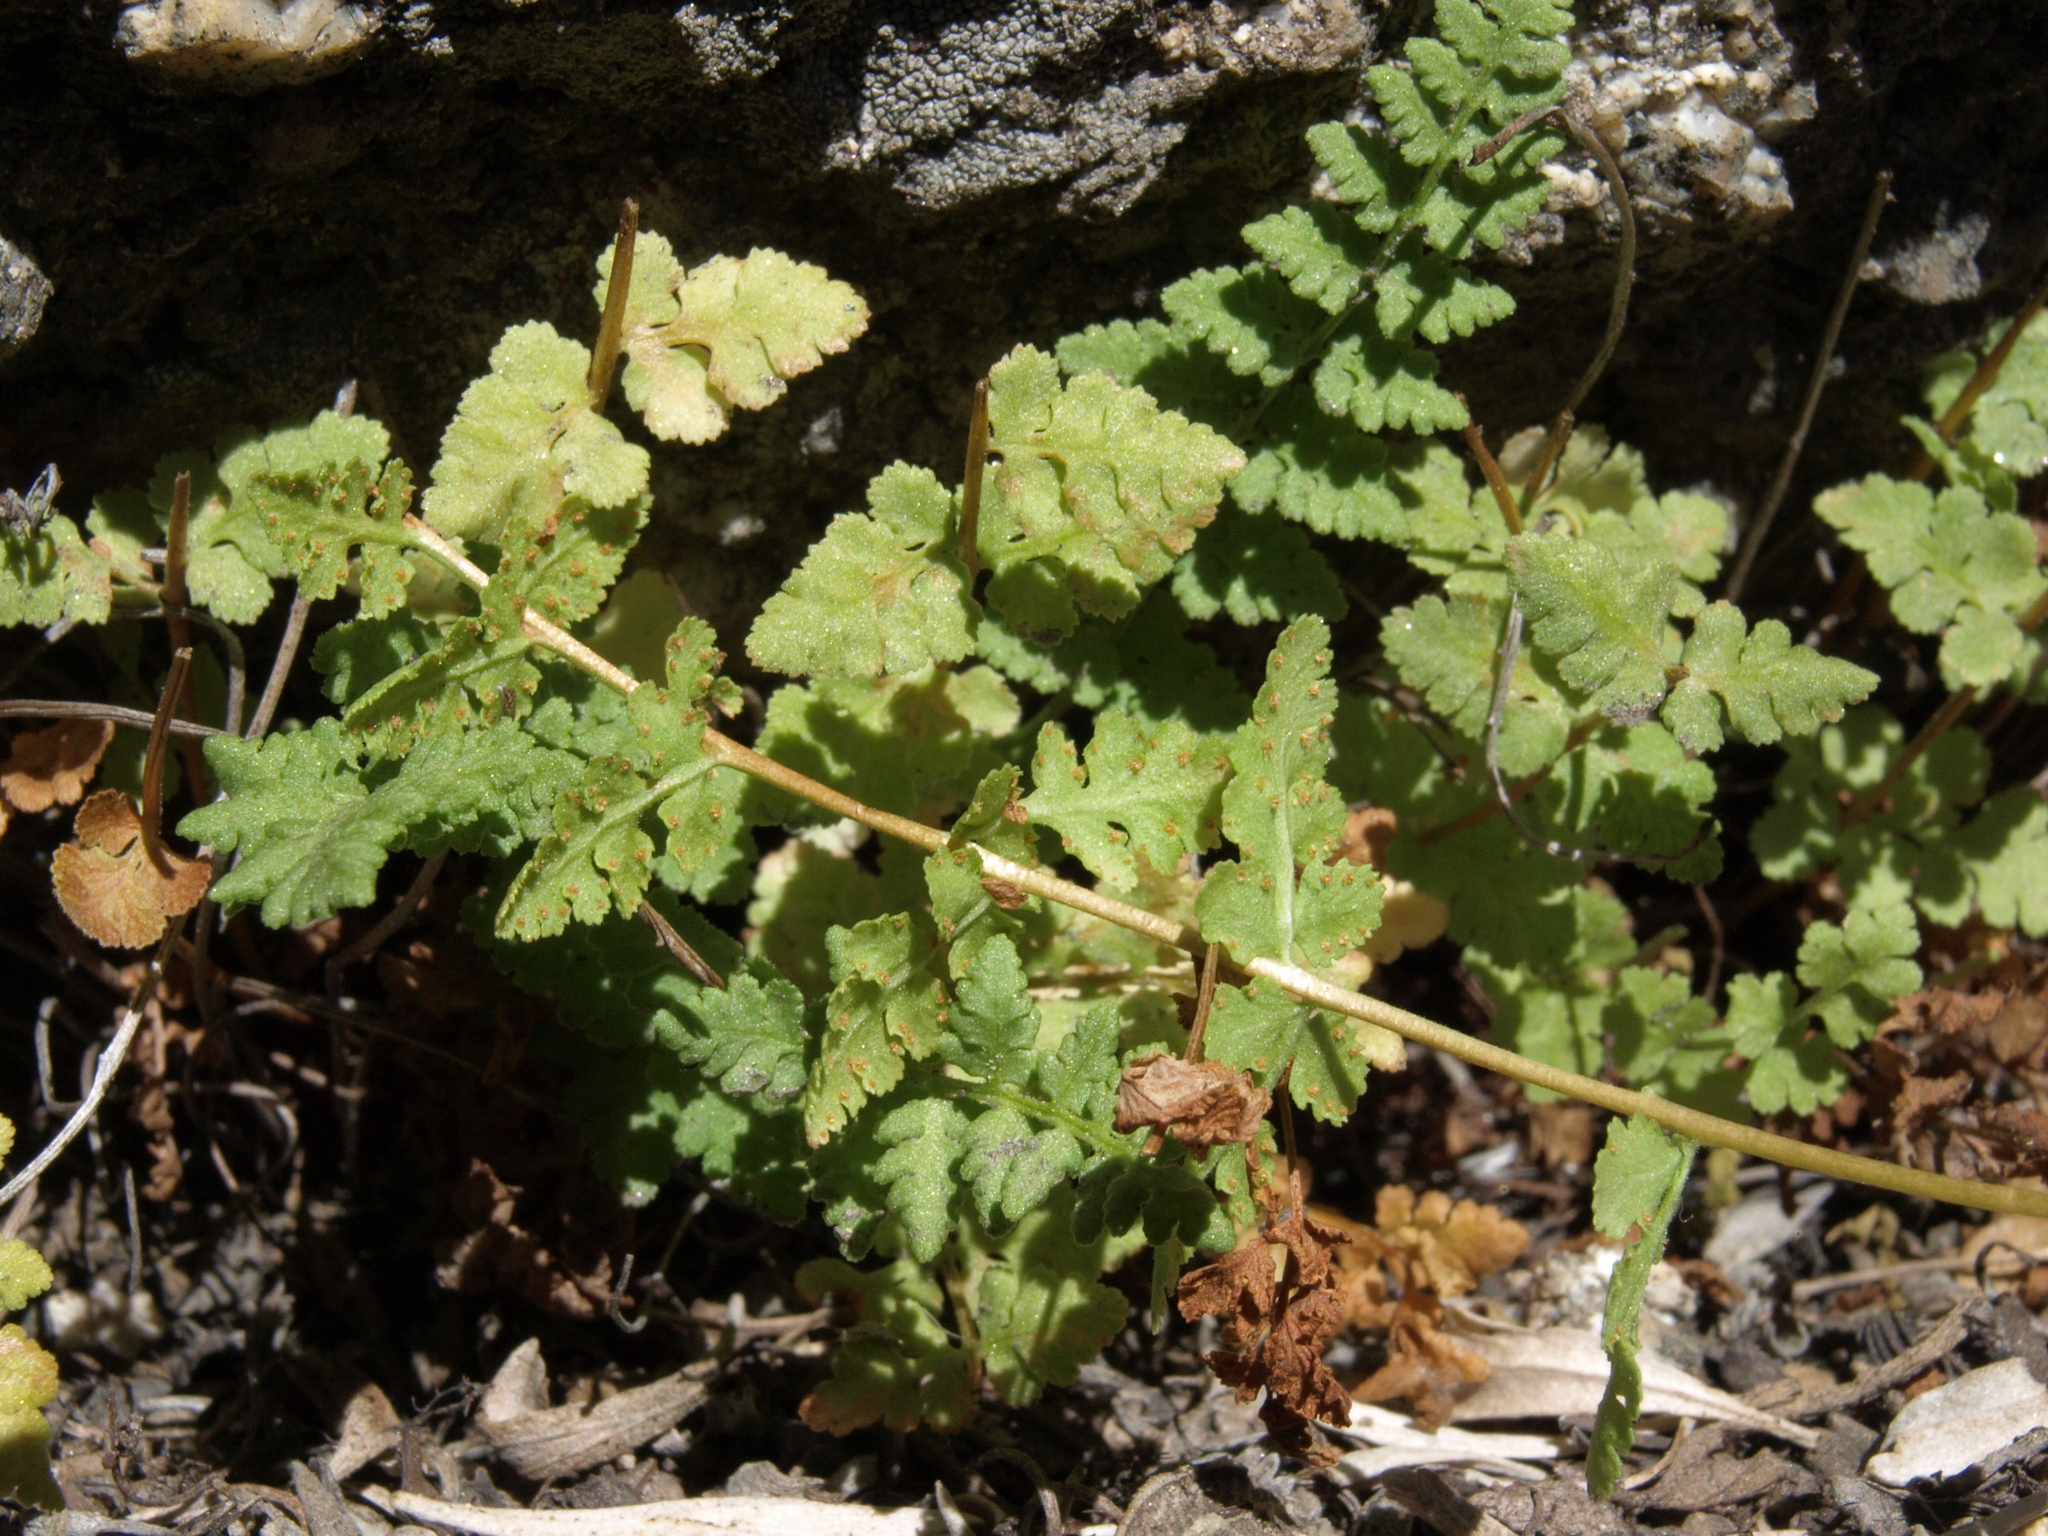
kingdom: Plantae
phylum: Tracheophyta
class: Polypodiopsida
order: Polypodiales
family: Woodsiaceae
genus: Physematium
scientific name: Physematium oreganum
